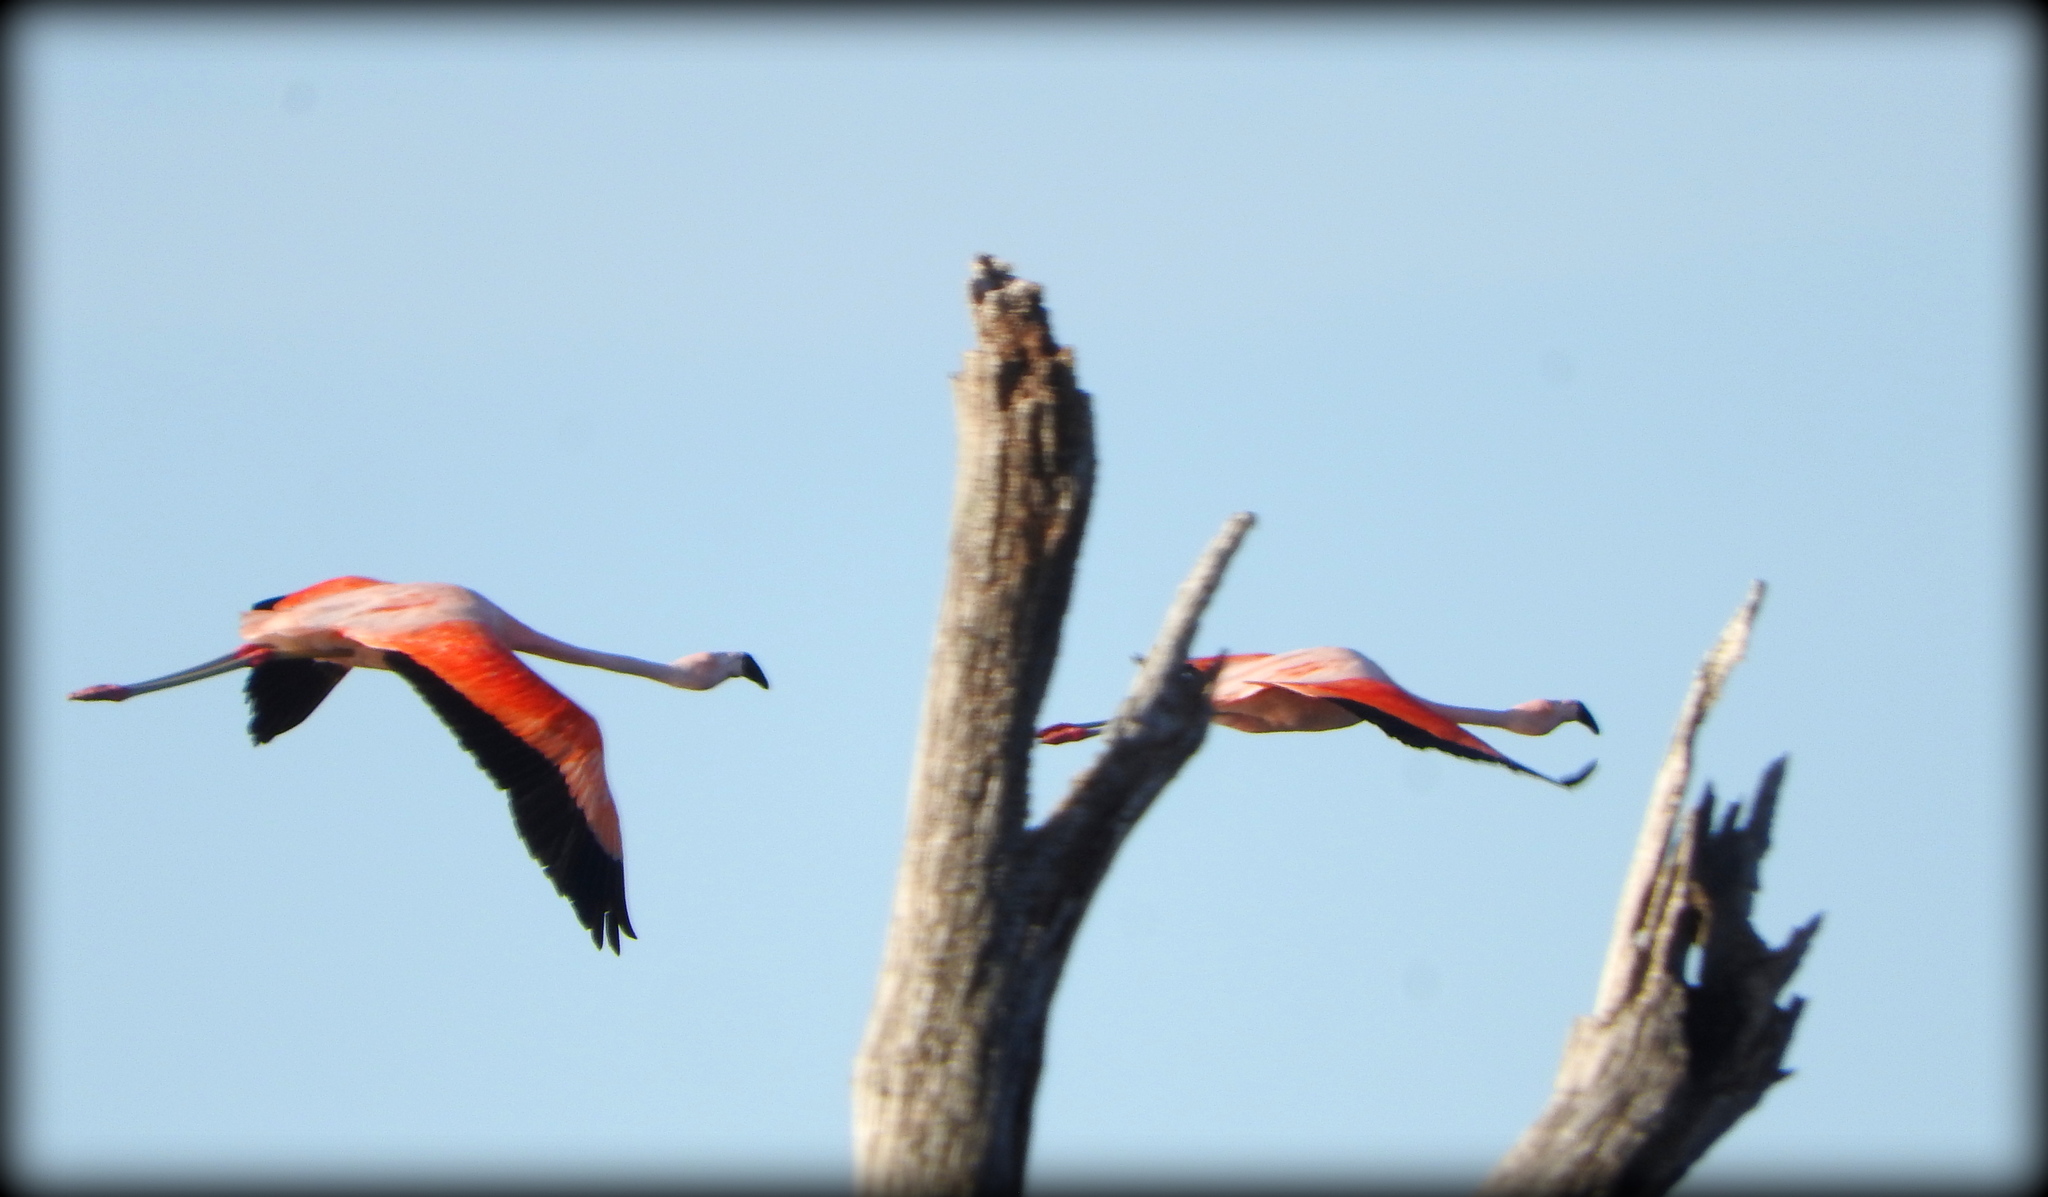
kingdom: Animalia
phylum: Chordata
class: Aves
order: Phoenicopteriformes
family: Phoenicopteridae
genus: Phoenicopterus
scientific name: Phoenicopterus chilensis
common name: Chilean flamingo
